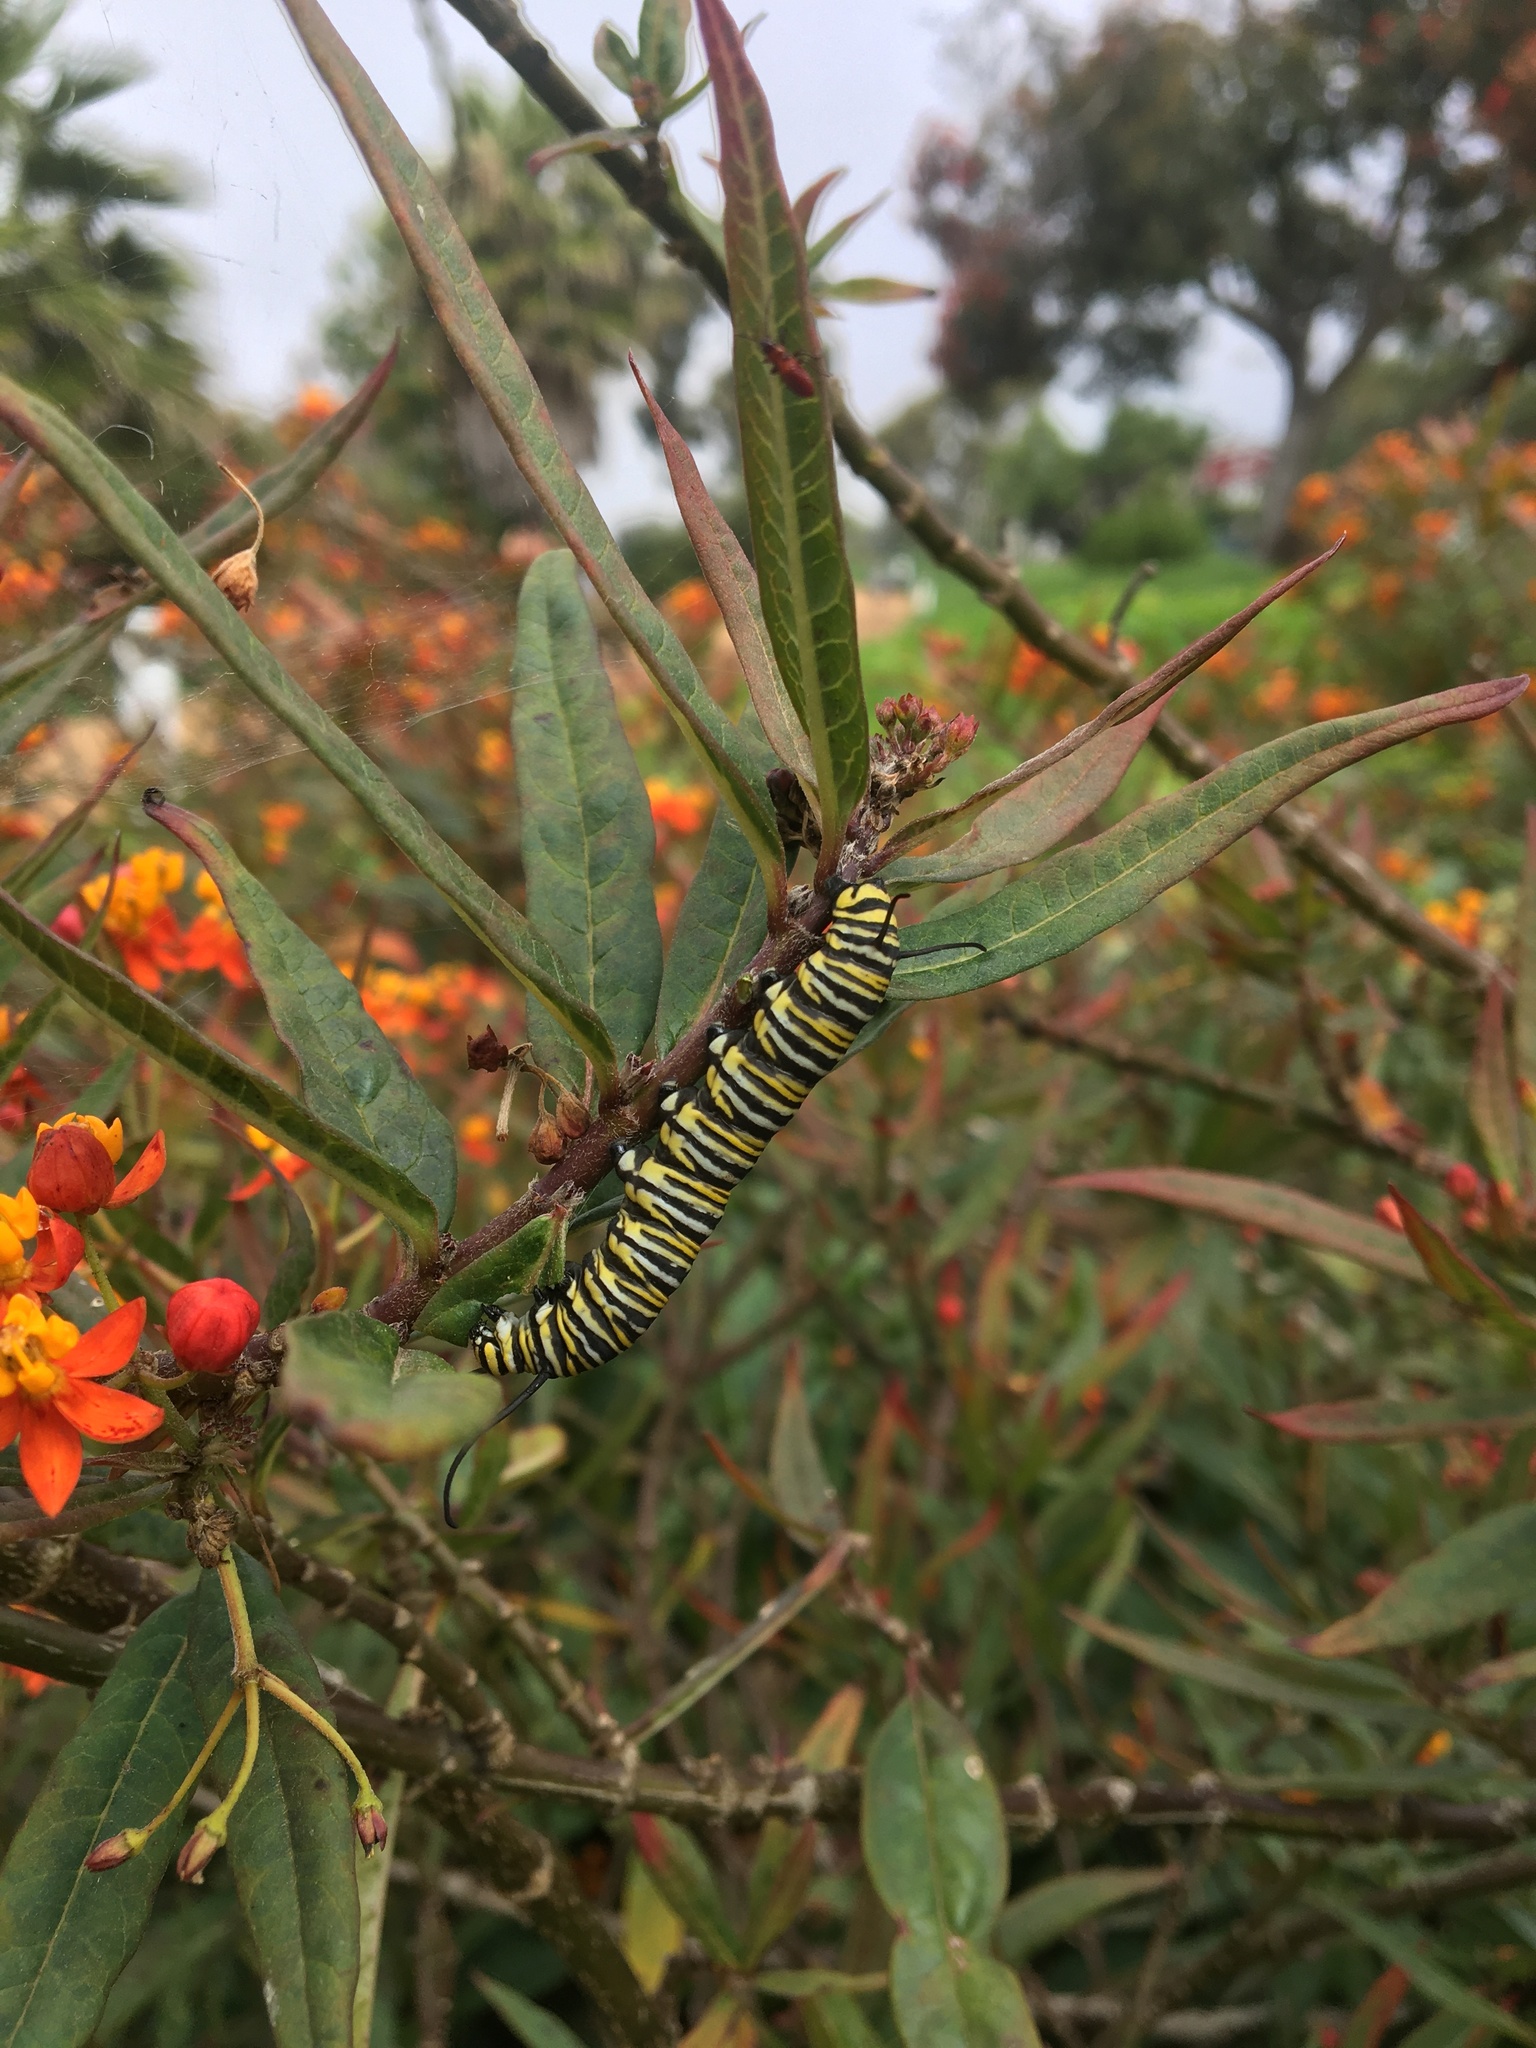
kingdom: Animalia
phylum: Arthropoda
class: Insecta
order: Lepidoptera
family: Nymphalidae
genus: Danaus
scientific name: Danaus plexippus
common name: Monarch
